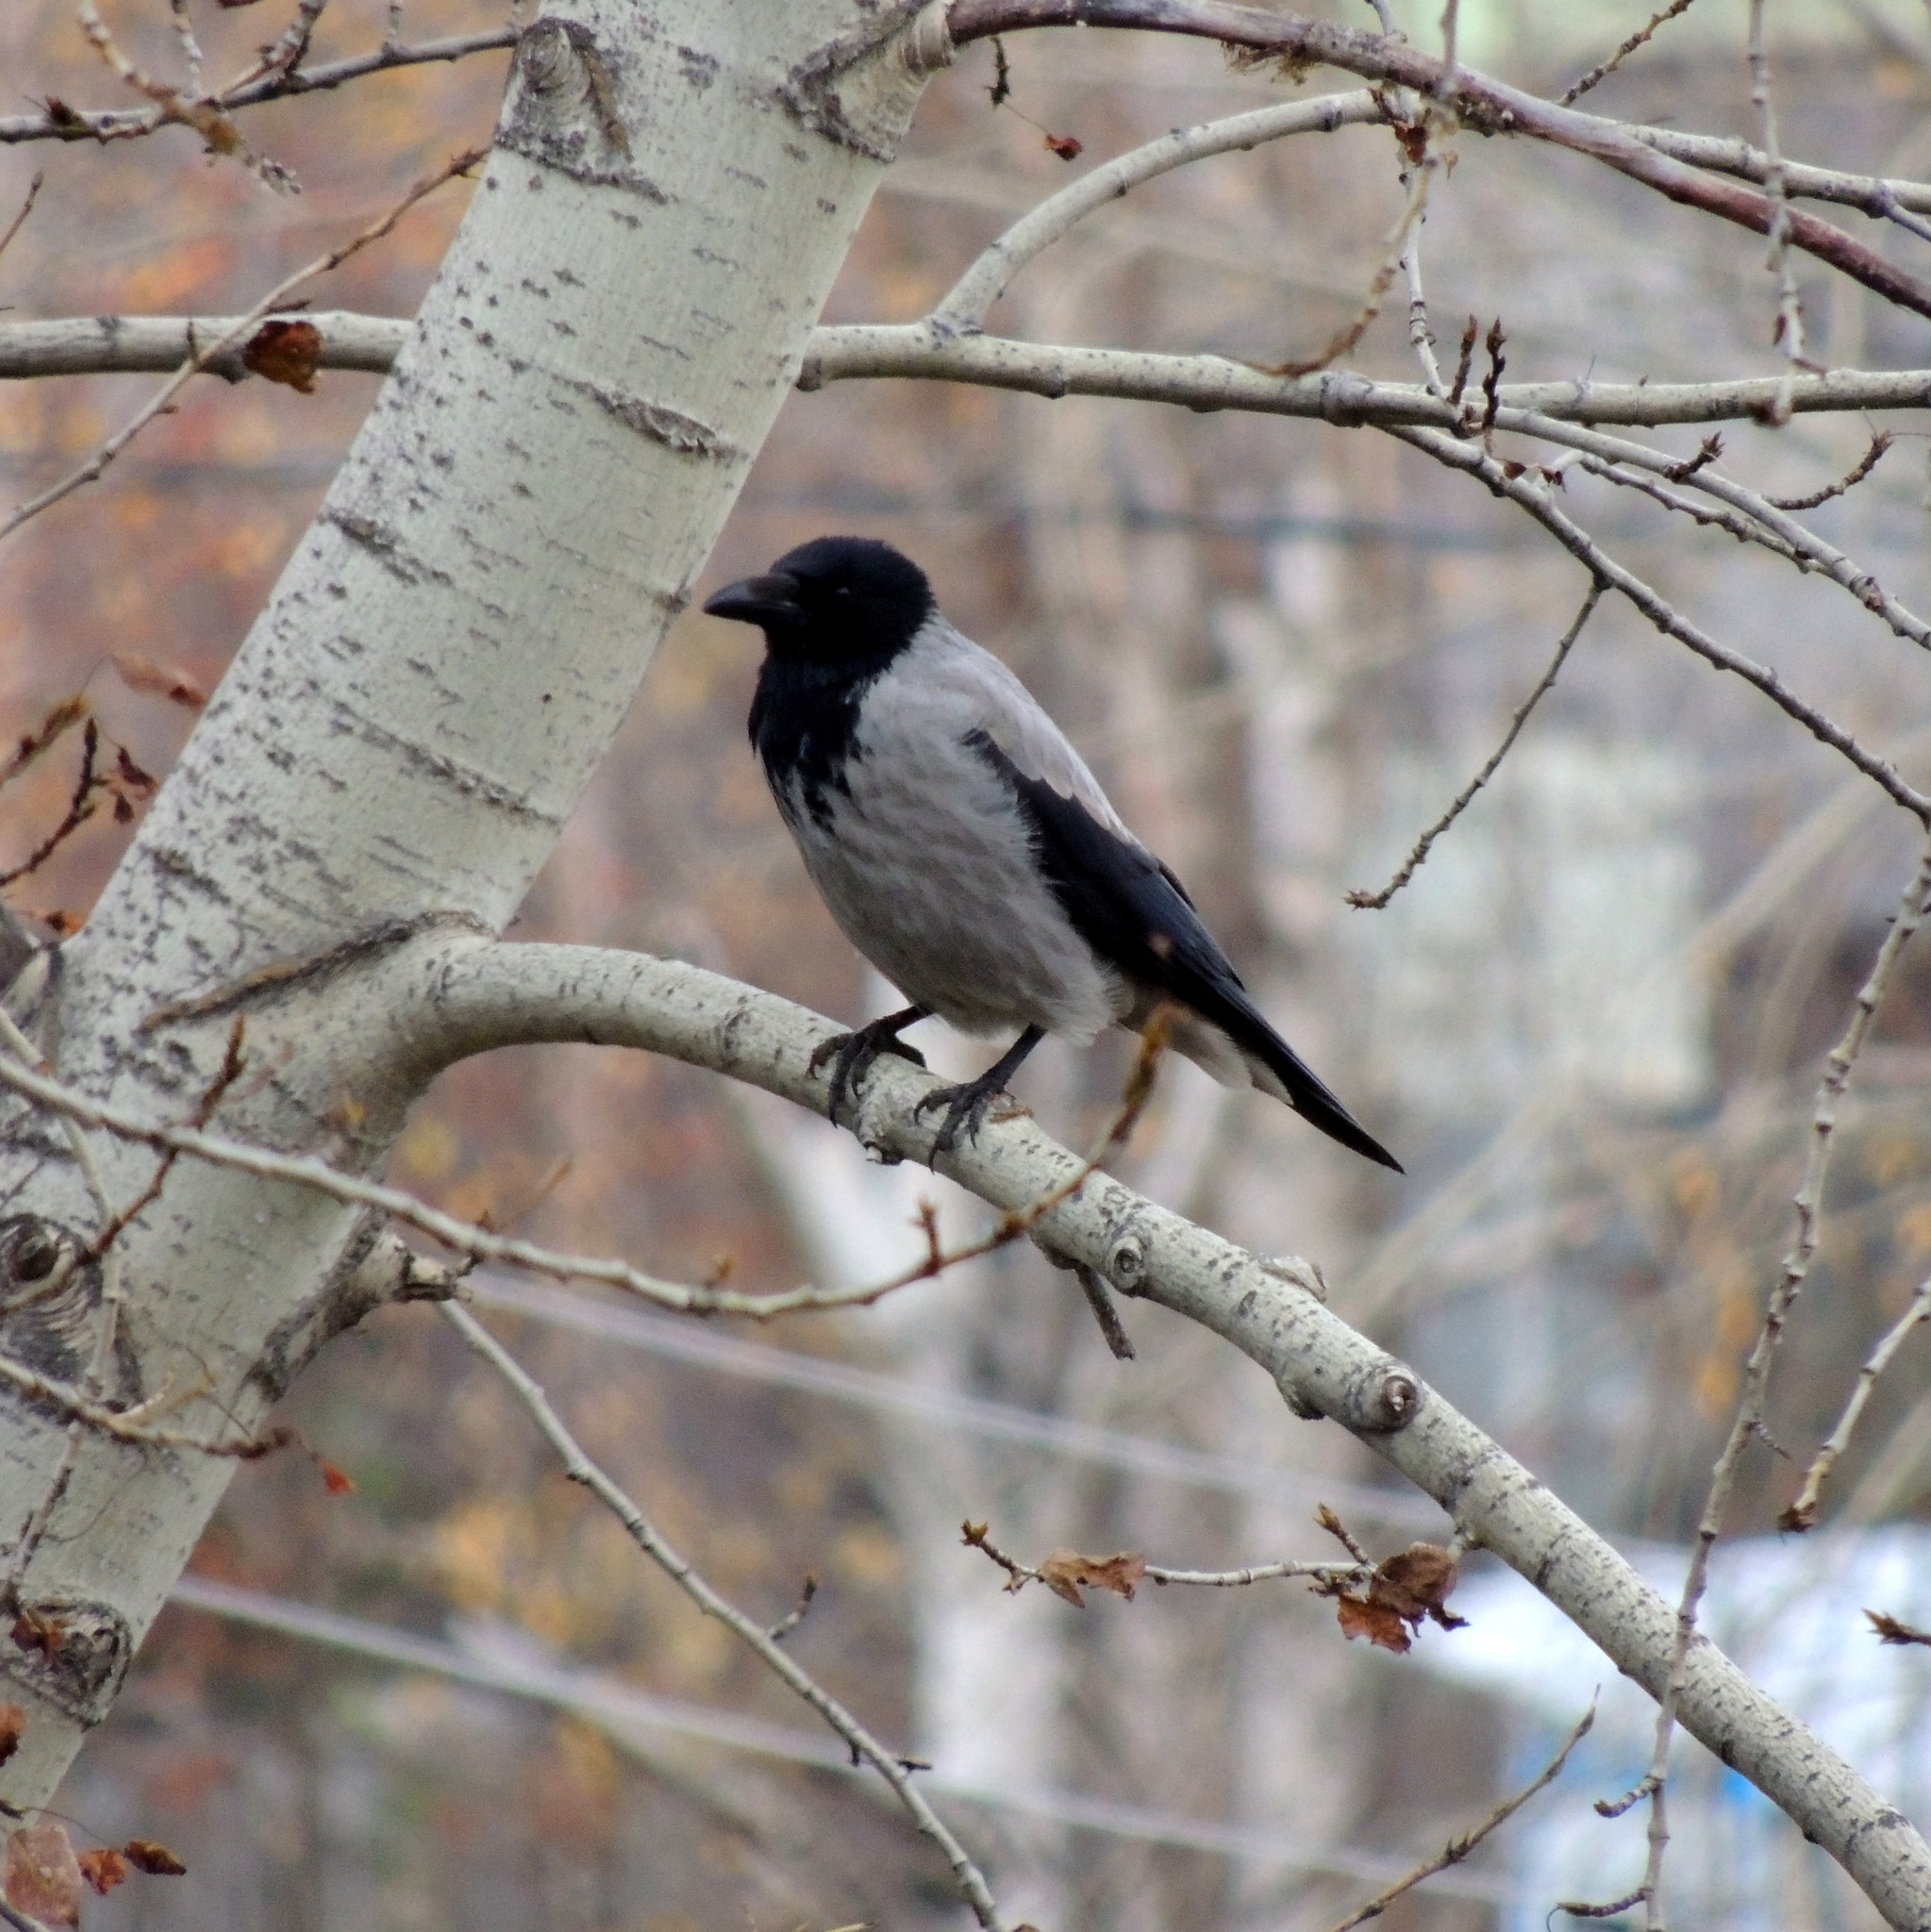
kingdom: Animalia
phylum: Chordata
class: Aves
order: Passeriformes
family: Corvidae
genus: Corvus
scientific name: Corvus cornix
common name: Hooded crow
